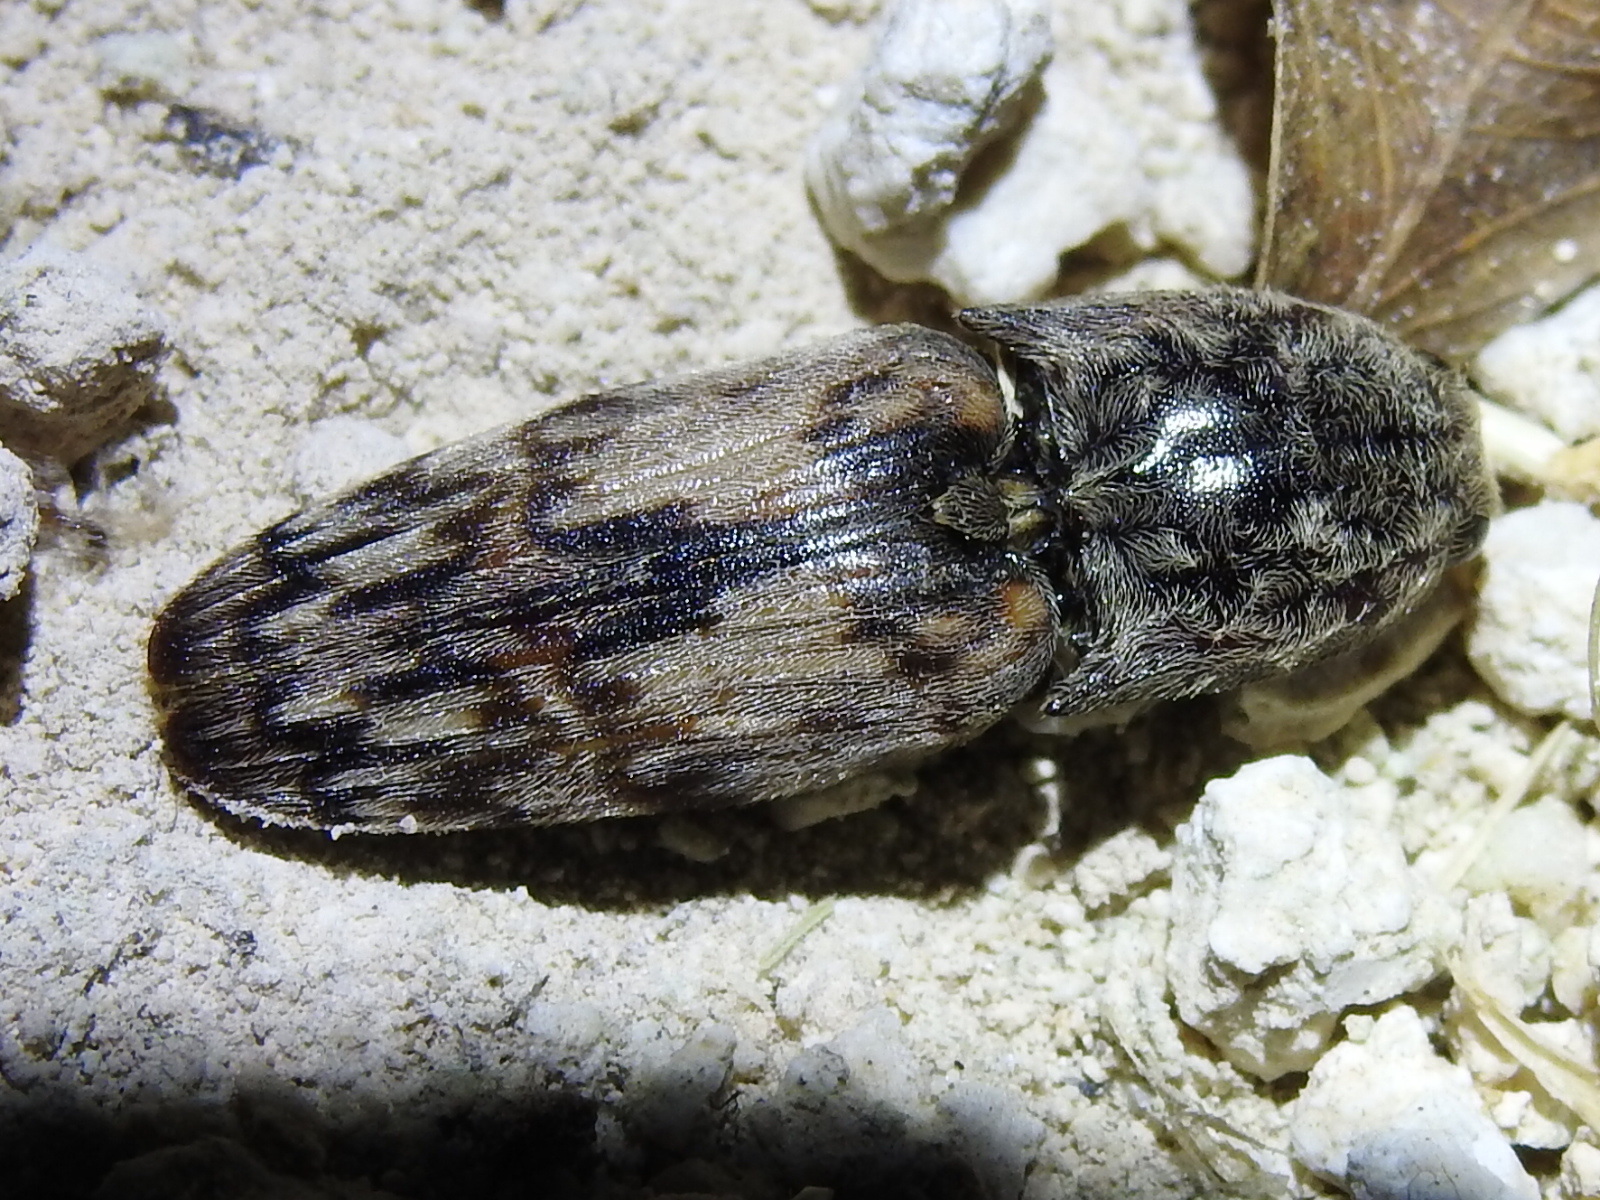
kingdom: Animalia
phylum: Arthropoda
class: Insecta
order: Coleoptera
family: Elateridae
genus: Pherhimius
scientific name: Pherhimius fascicularis
